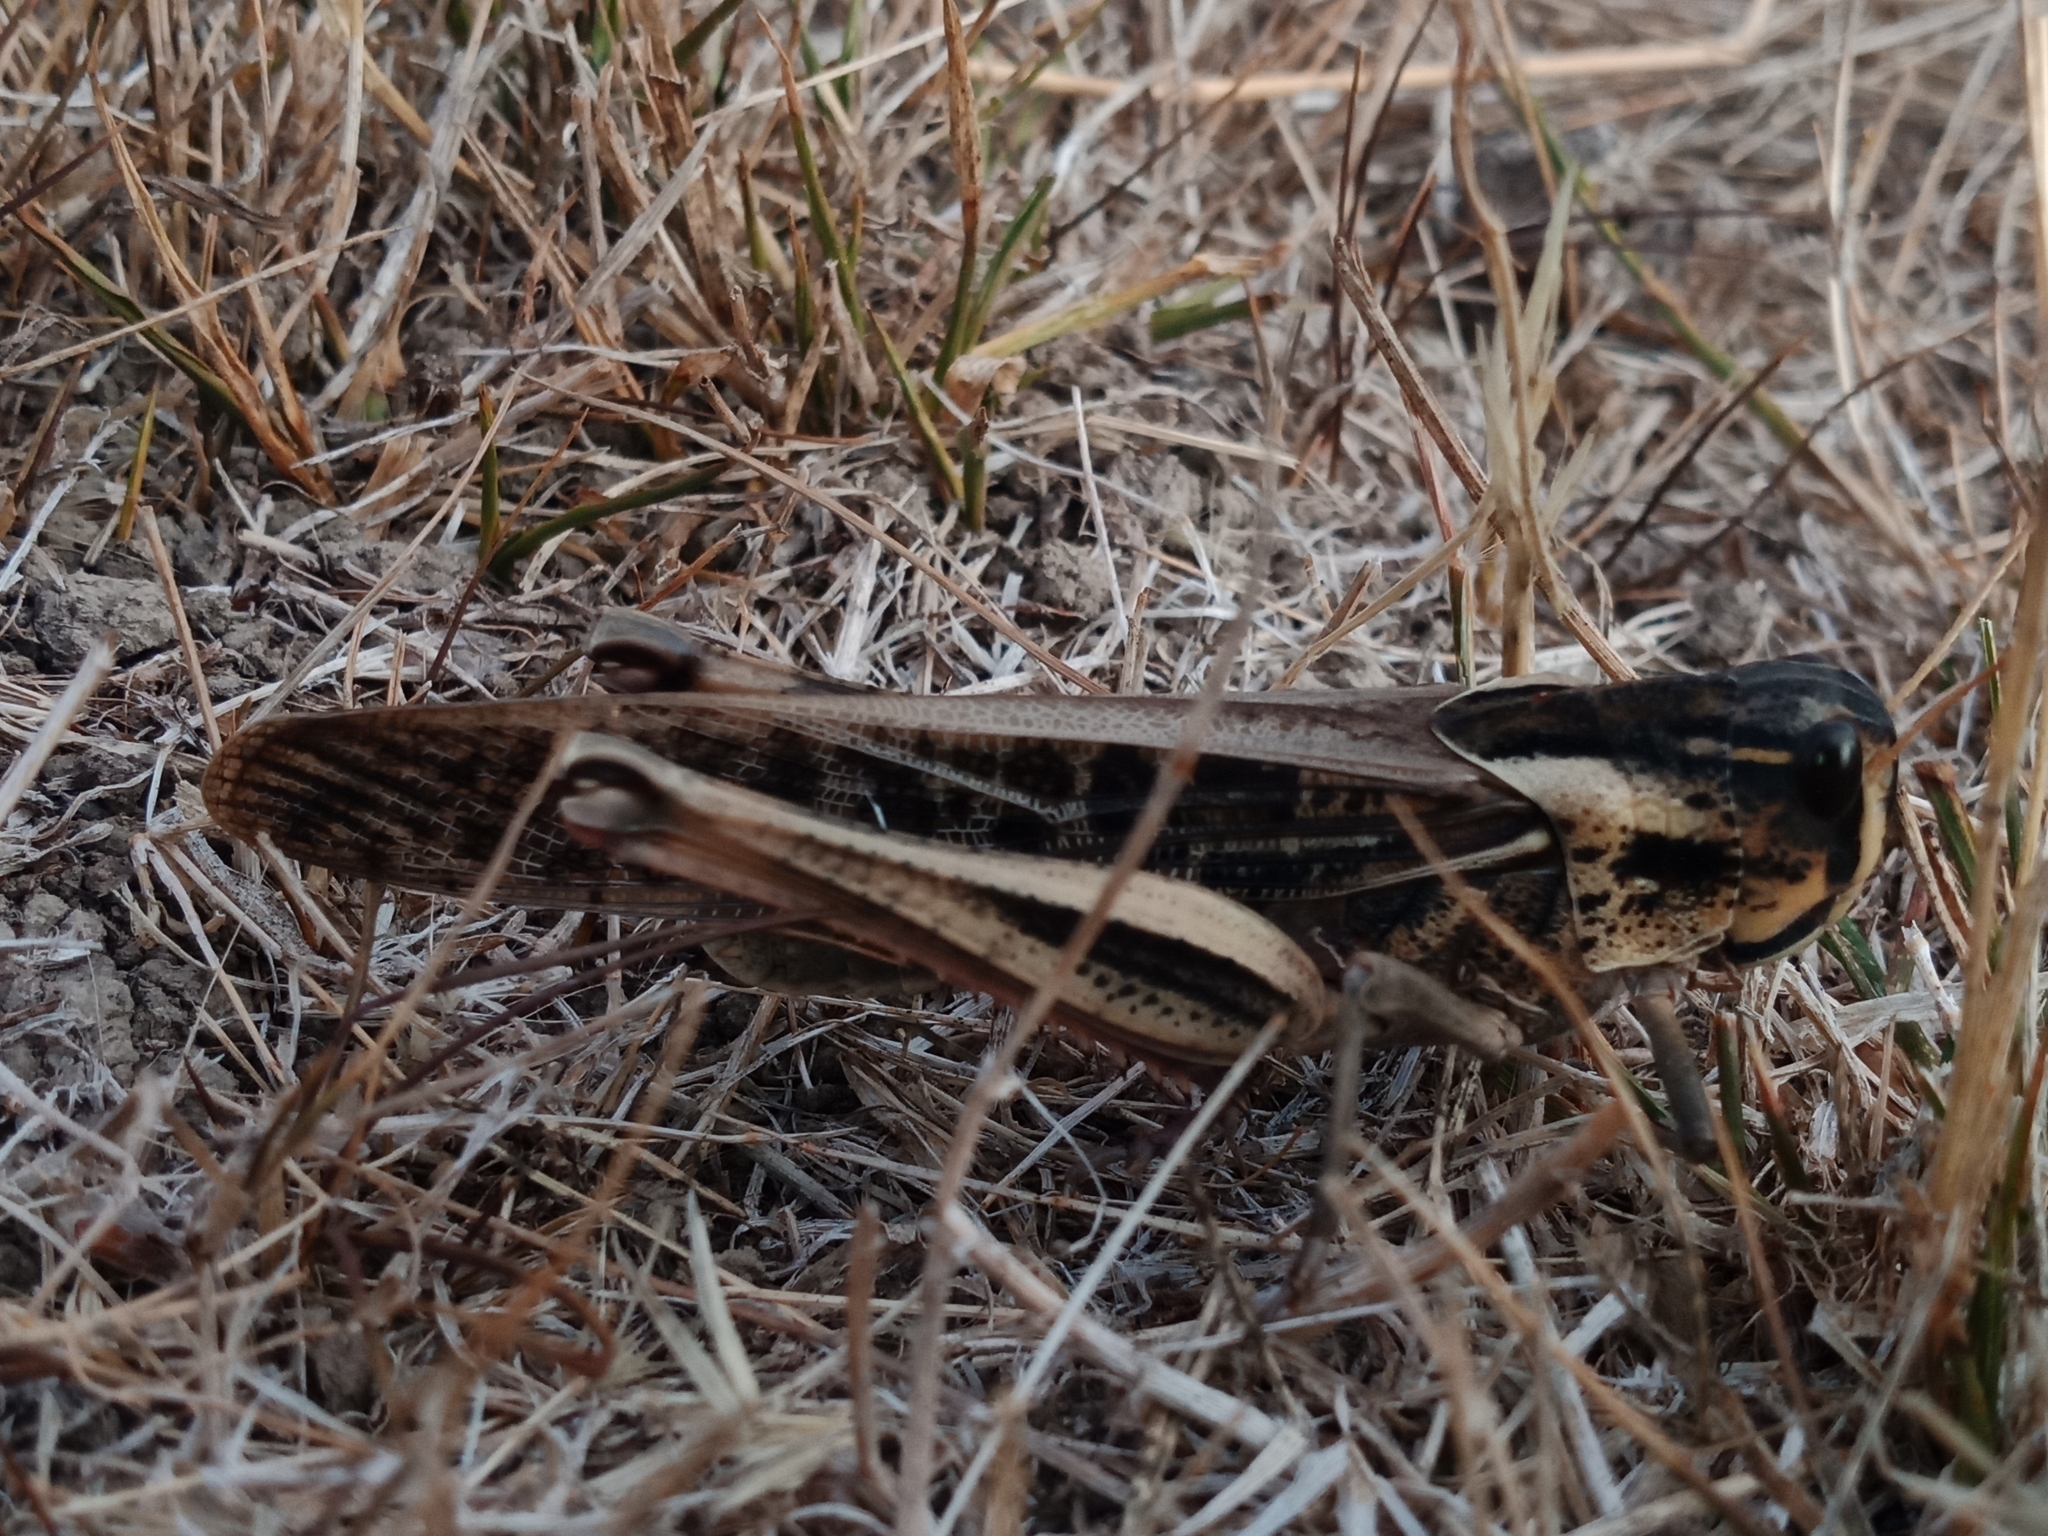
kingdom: Animalia
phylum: Arthropoda
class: Insecta
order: Orthoptera
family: Acrididae
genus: Locusta
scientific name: Locusta migratoria
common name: Migratory locust
